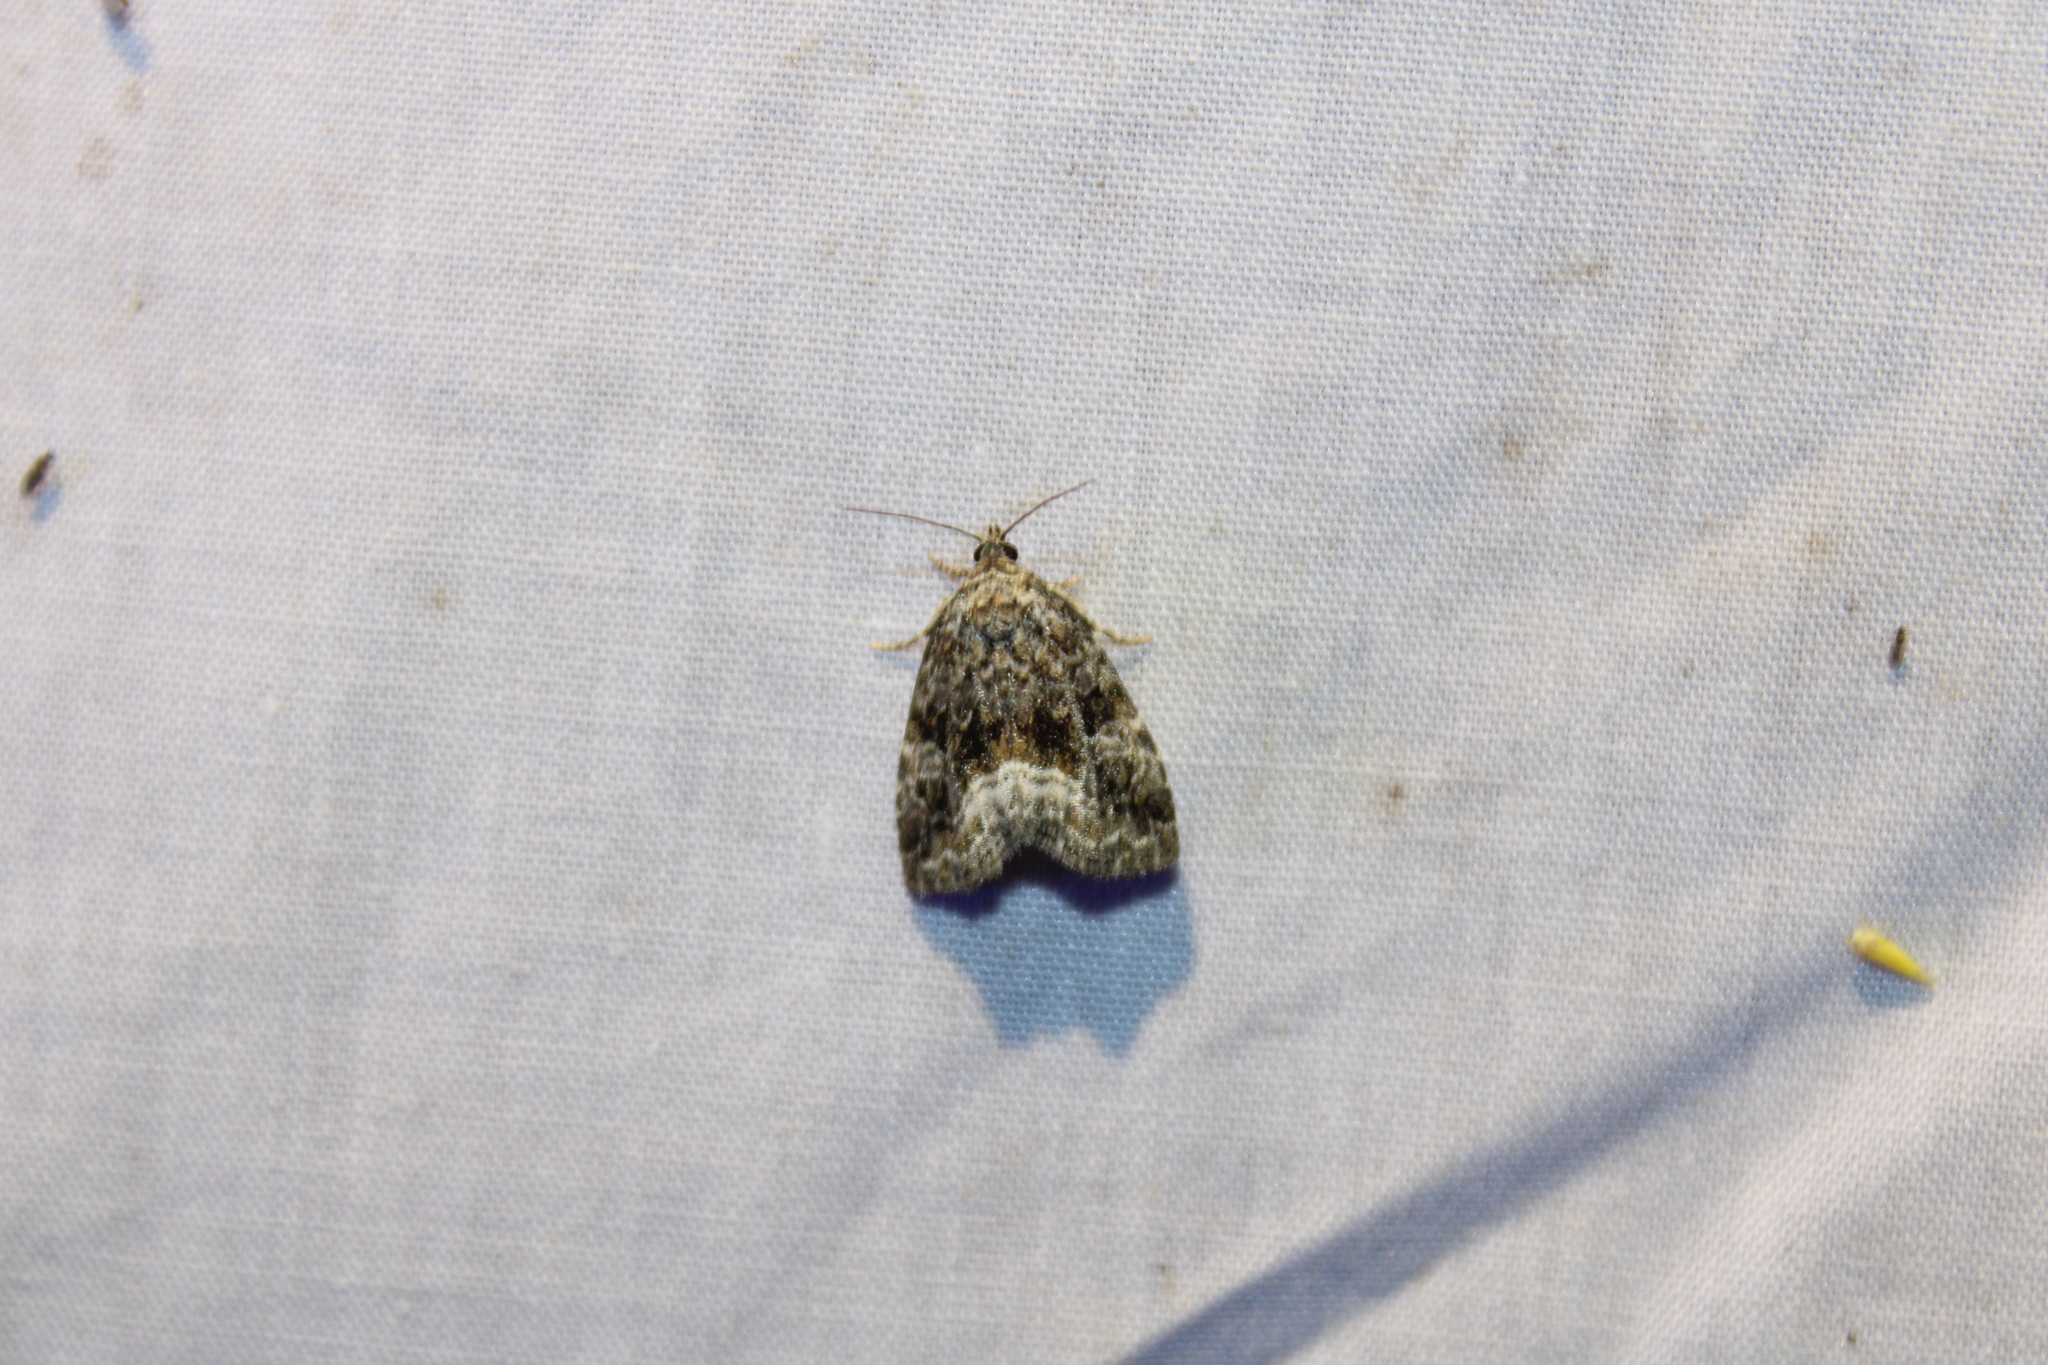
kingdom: Animalia
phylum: Arthropoda
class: Insecta
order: Lepidoptera
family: Noctuidae
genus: Protodeltote
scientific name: Protodeltote muscosula
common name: Large mossy glyph
